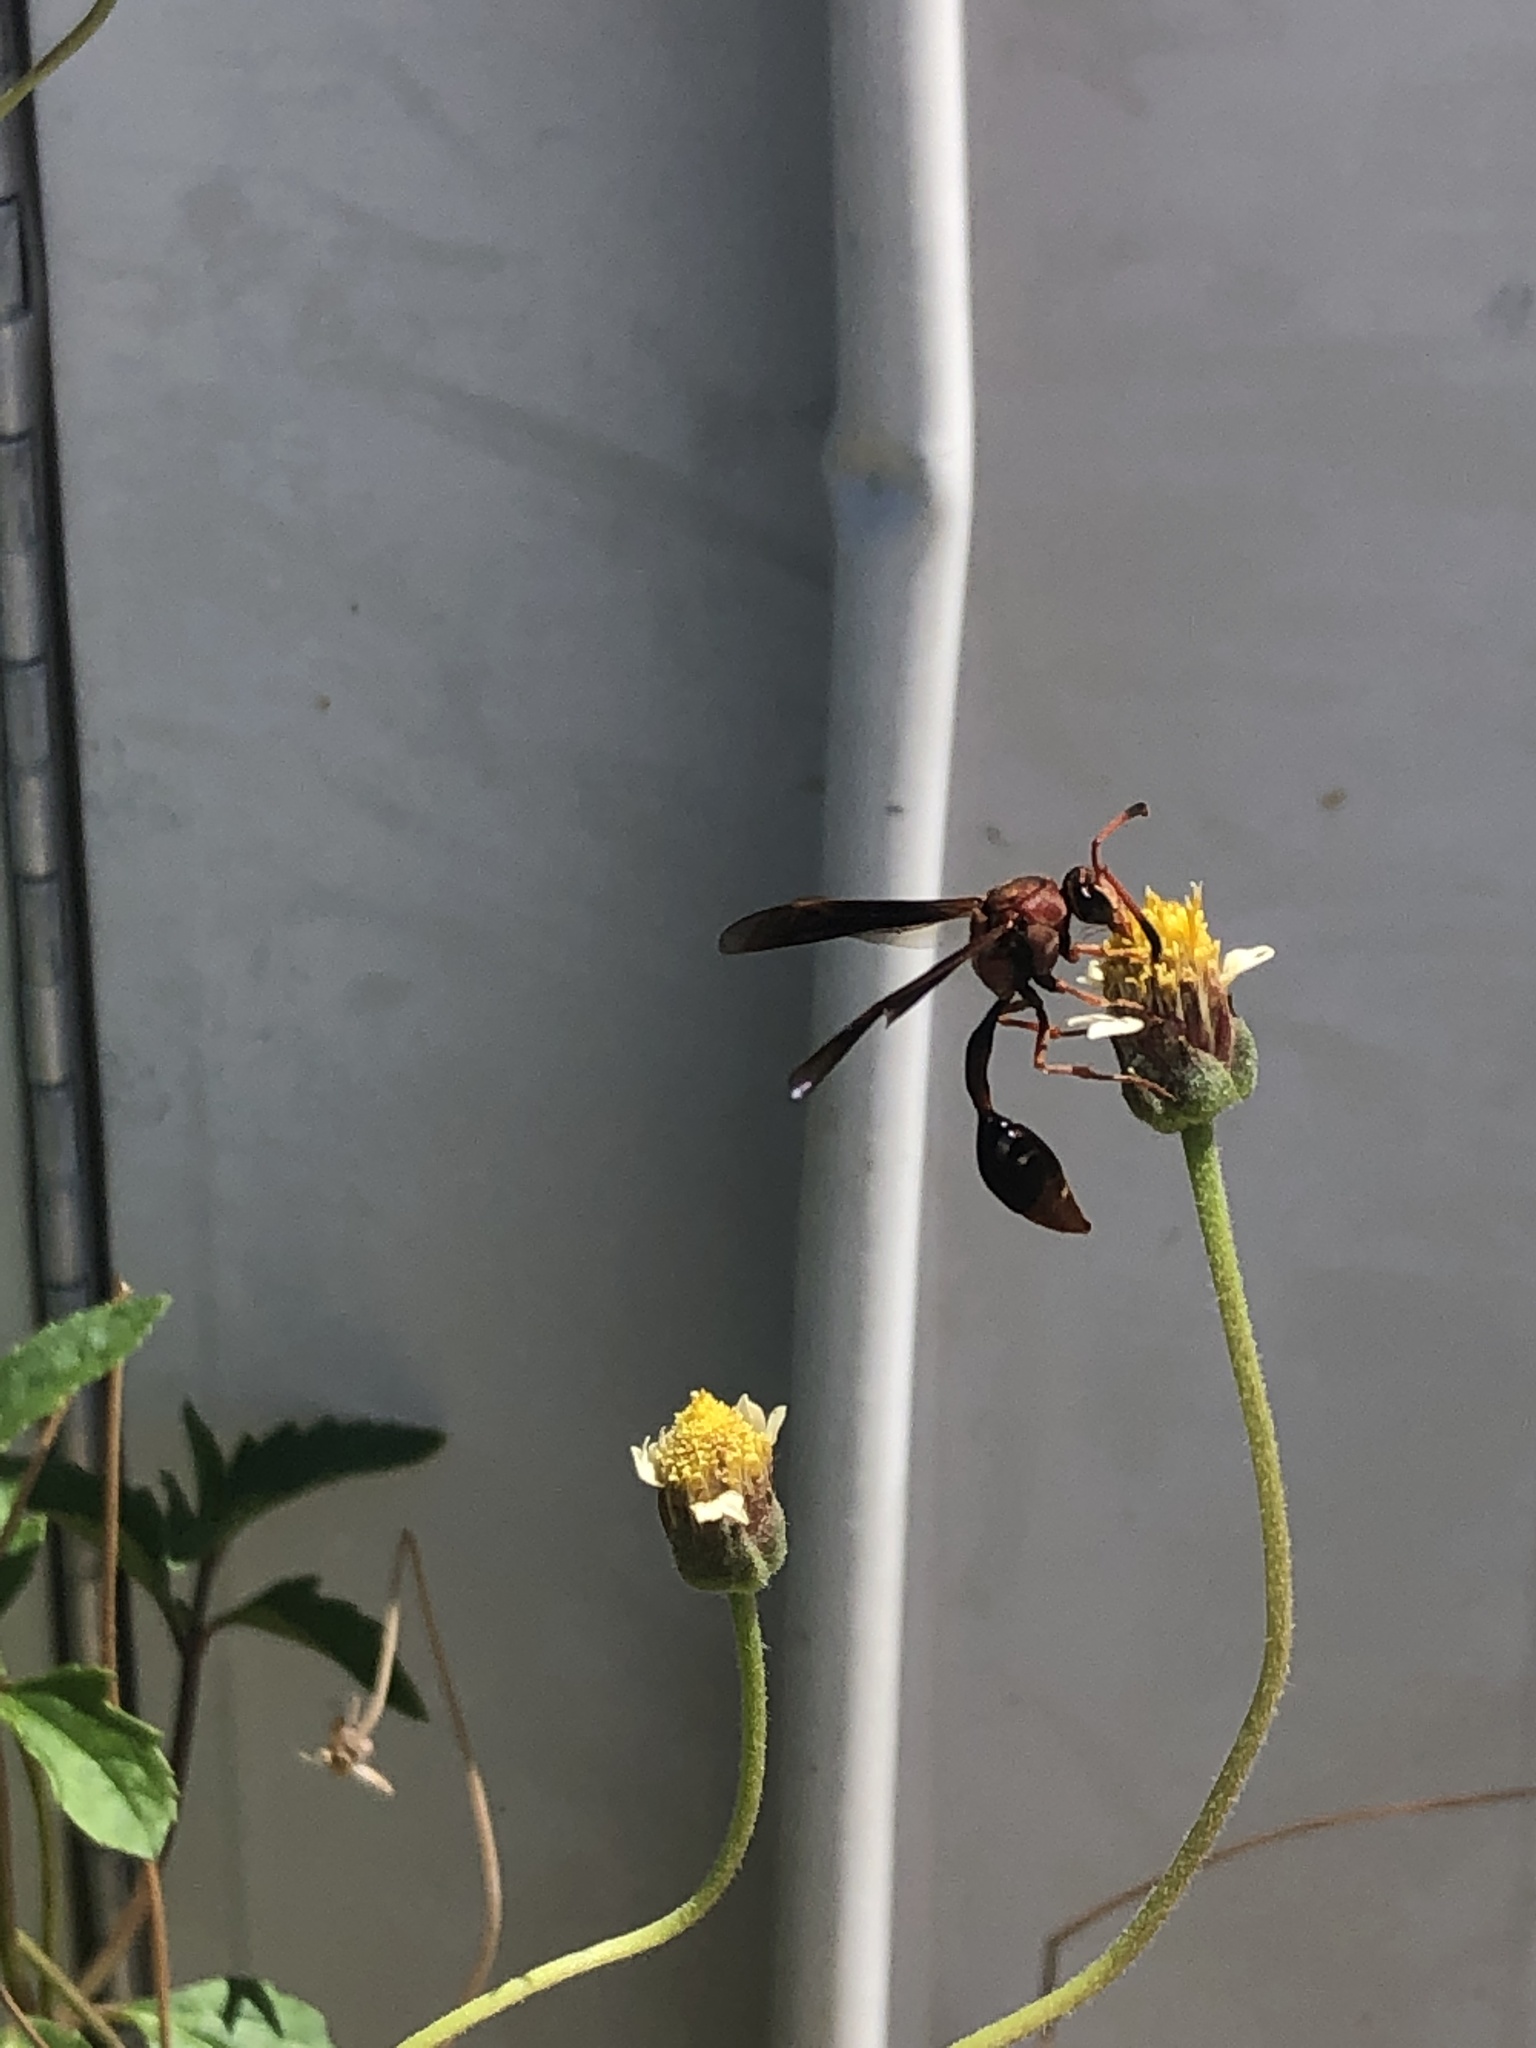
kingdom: Animalia
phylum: Arthropoda
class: Insecta
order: Hymenoptera
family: Eumenidae
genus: Zeta
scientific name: Zeta argillaceum
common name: Potter wasp
